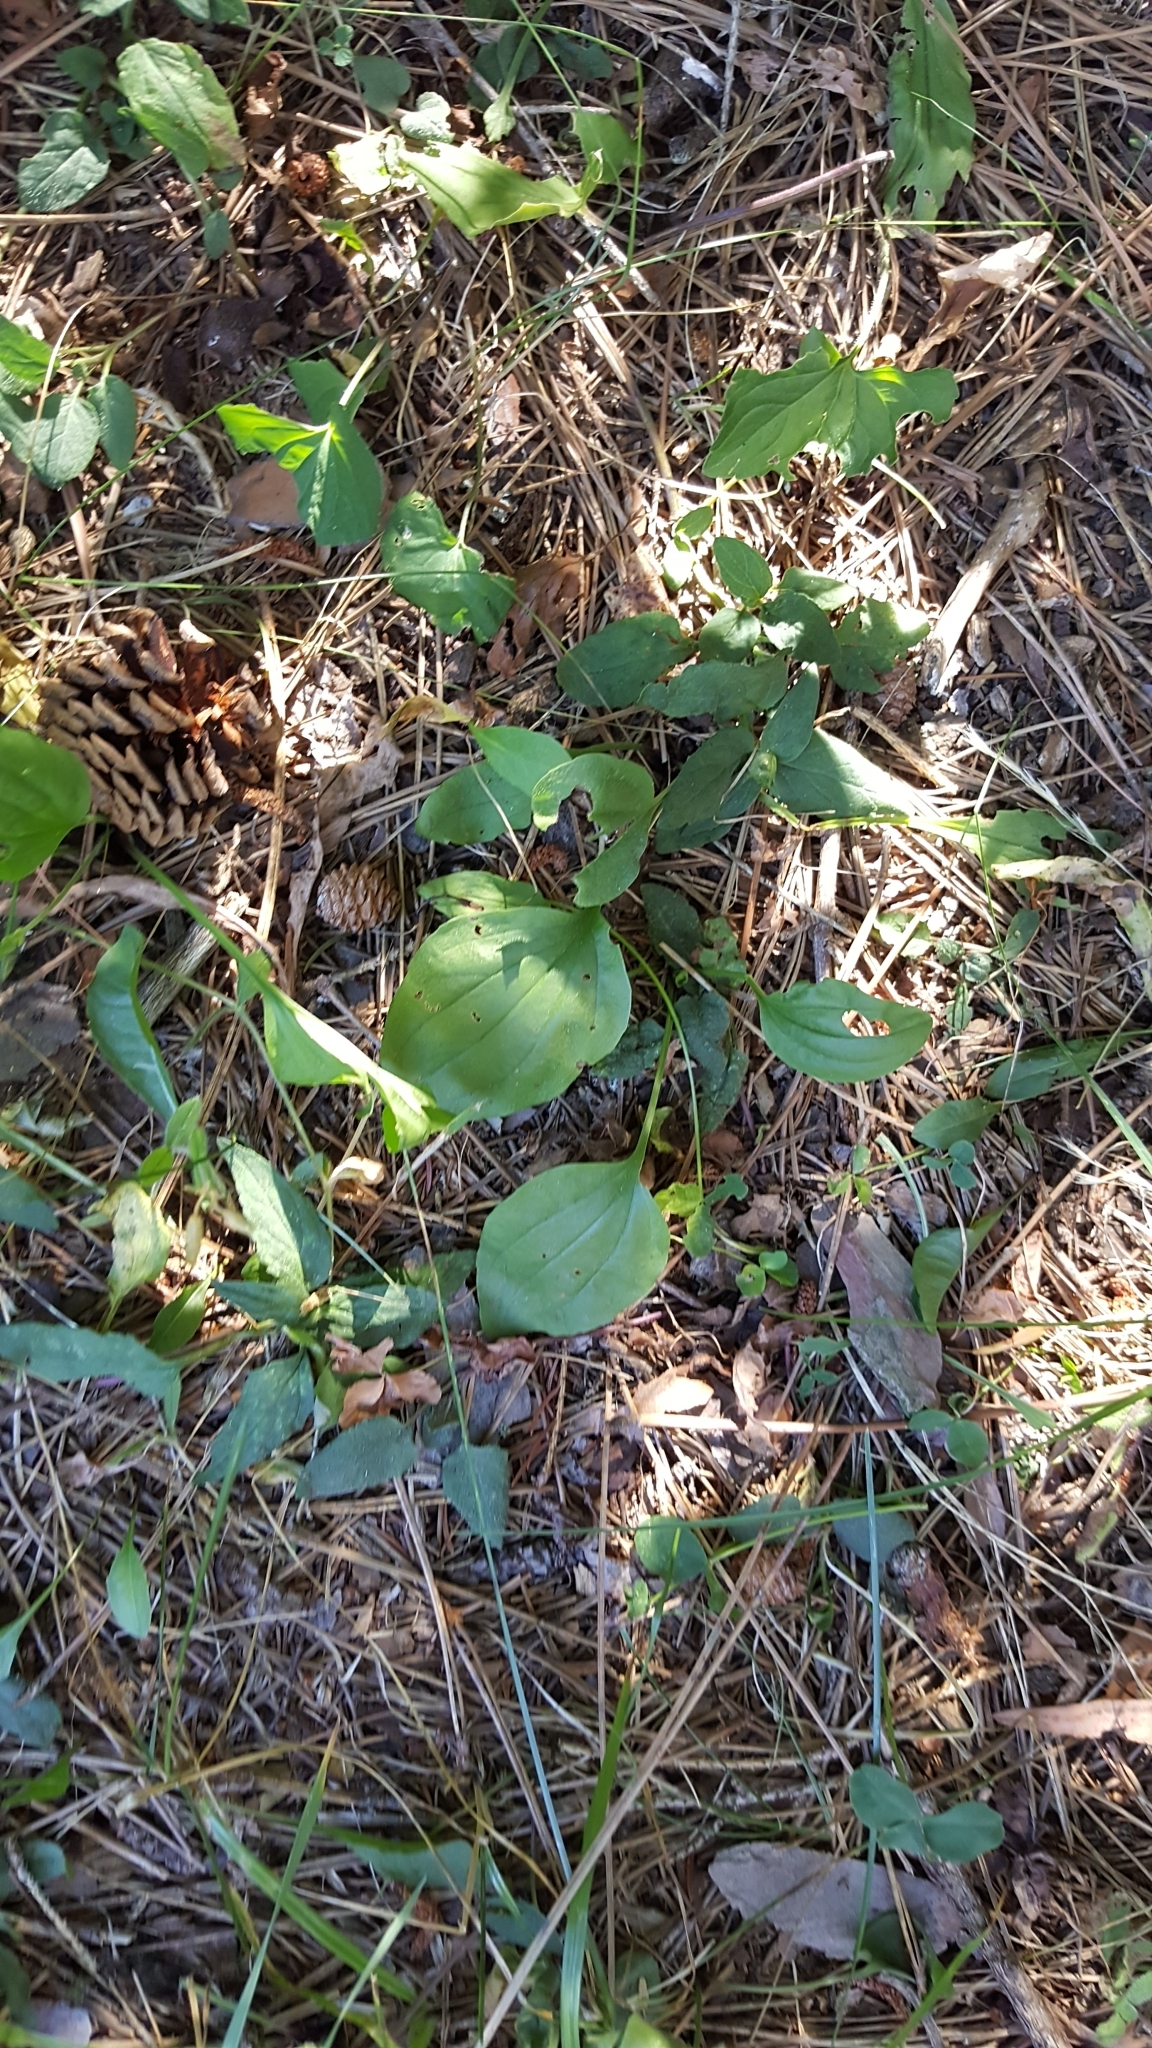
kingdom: Plantae
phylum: Tracheophyta
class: Liliopsida
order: Asparagales
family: Asparagaceae
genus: Maianthemum
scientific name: Maianthemum canadense
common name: False lily-of-the-valley
